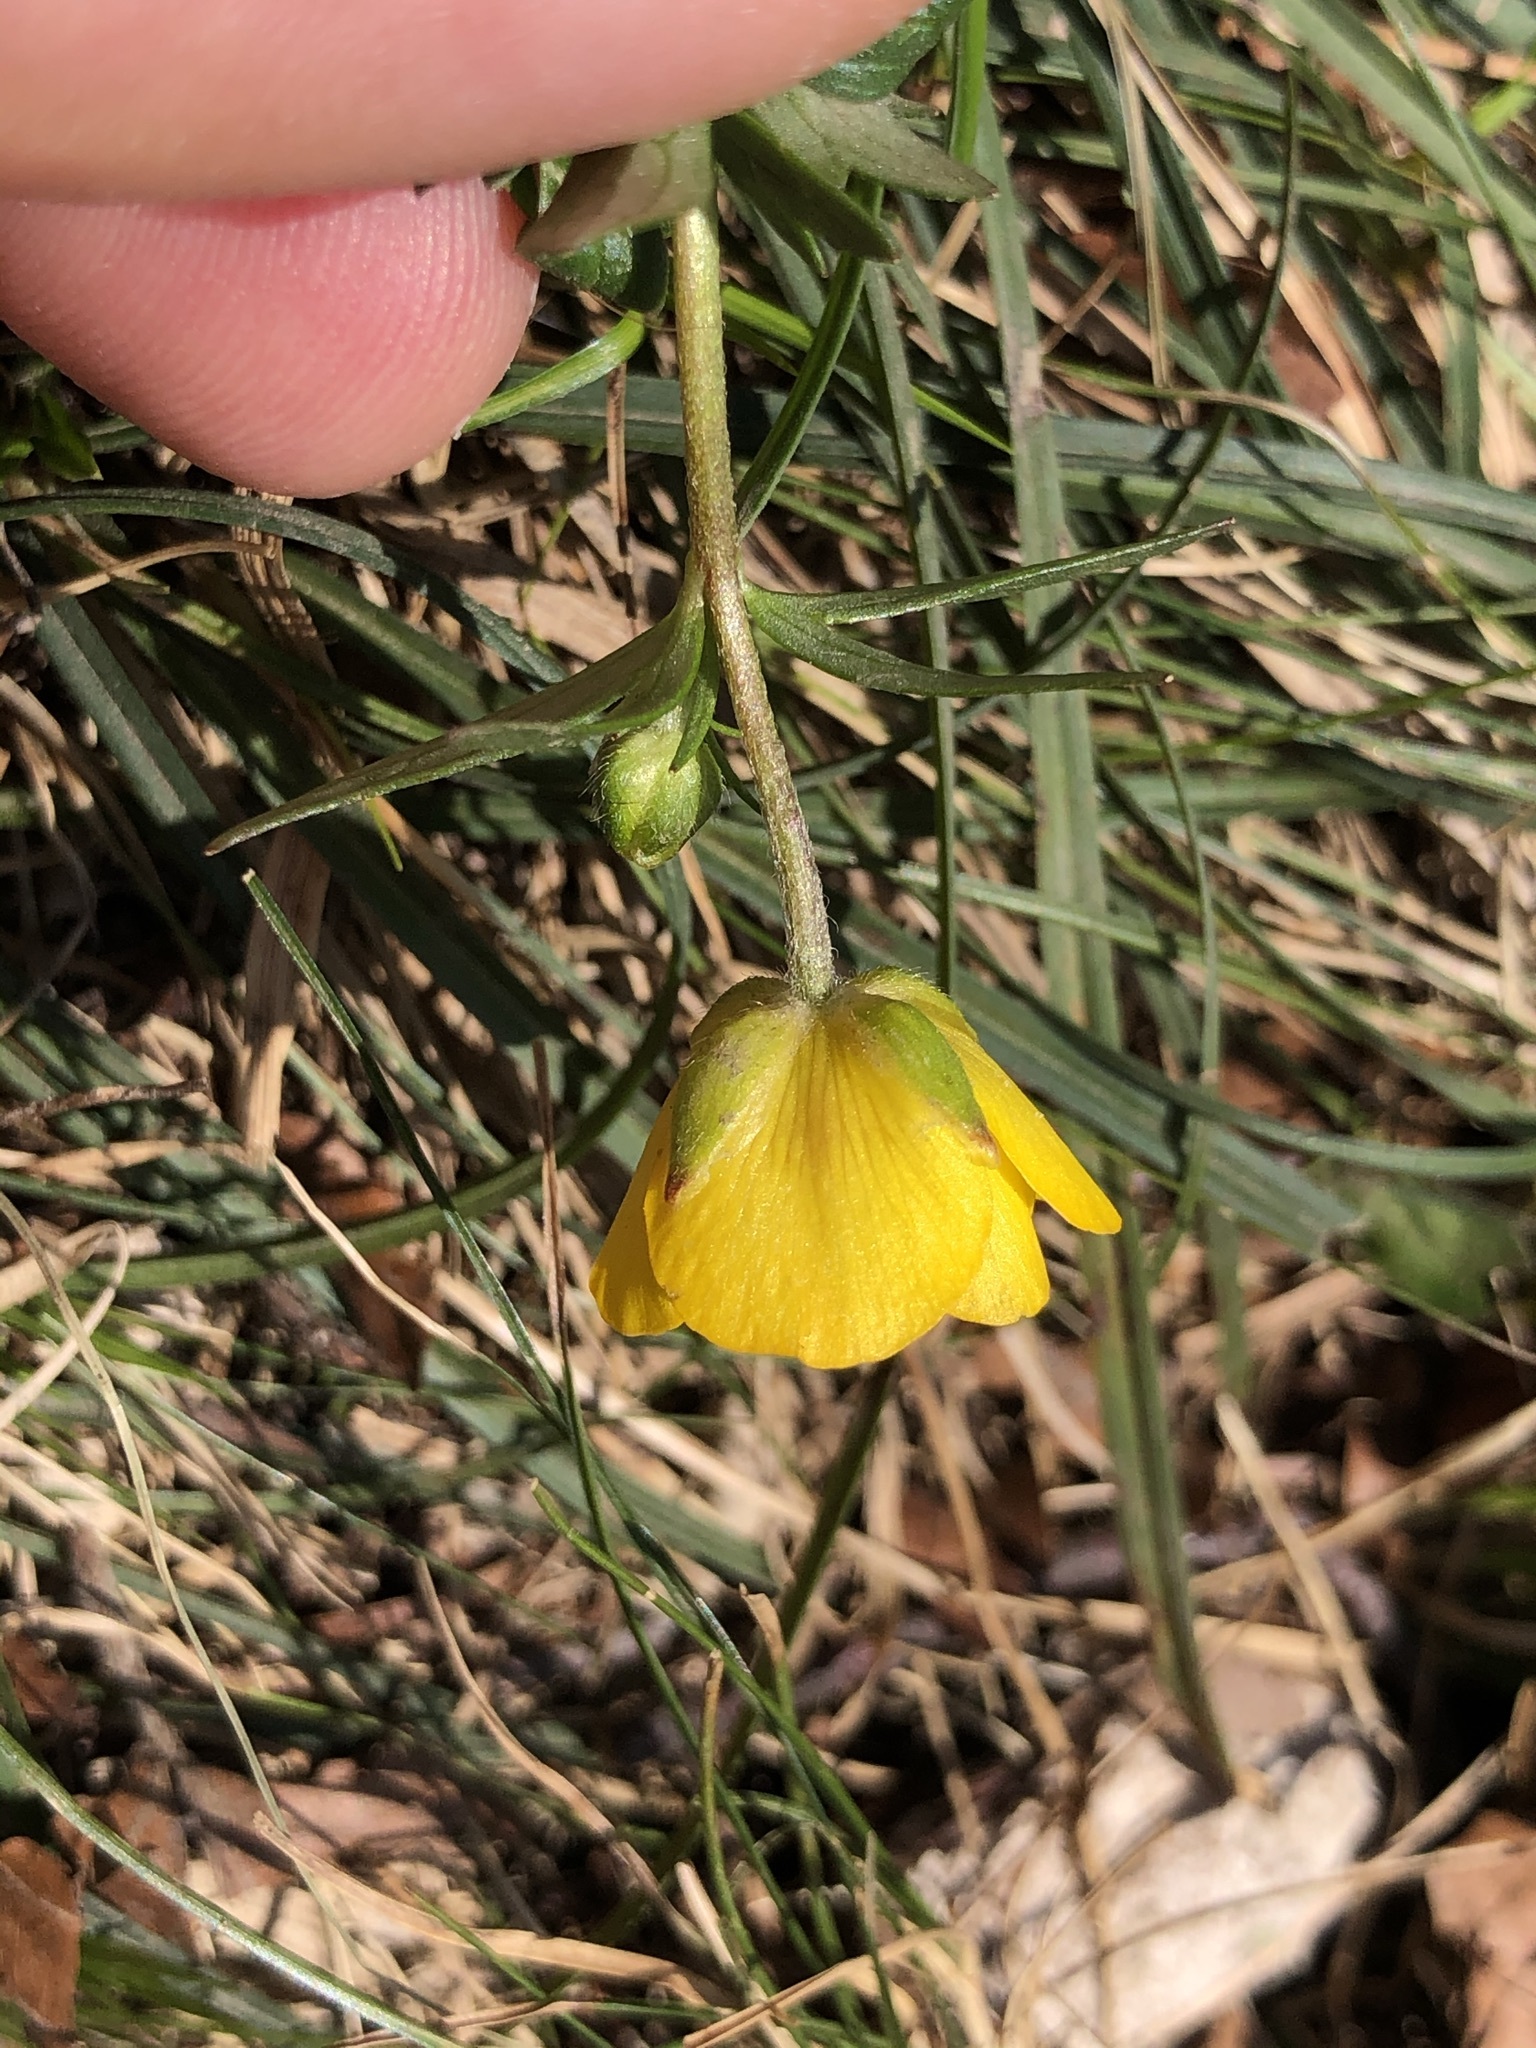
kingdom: Plantae
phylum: Tracheophyta
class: Magnoliopsida
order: Ranunculales
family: Ranunculaceae
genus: Ranunculus
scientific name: Ranunculus montanus
